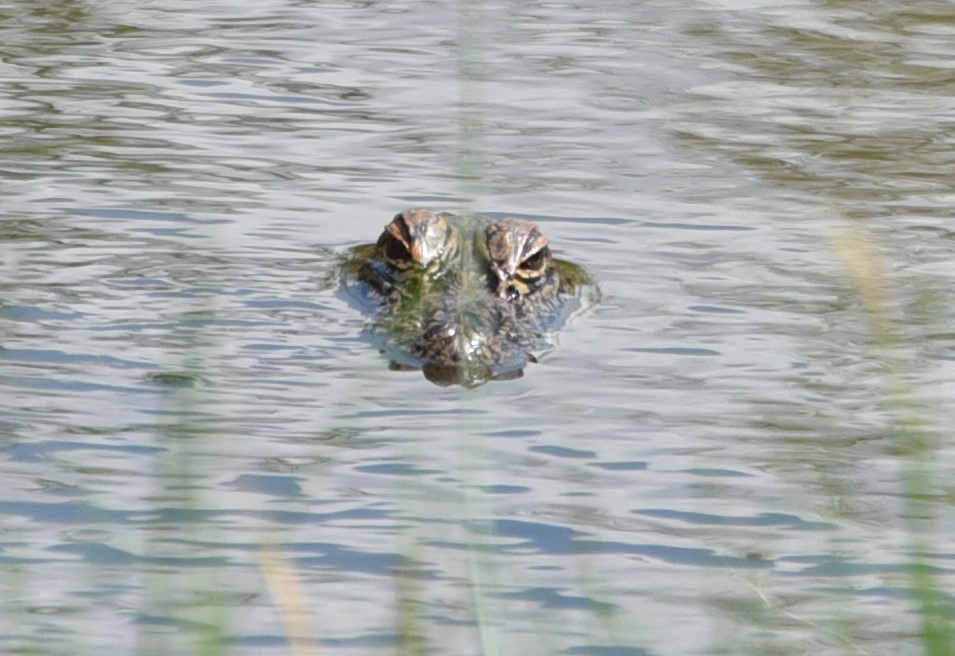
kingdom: Animalia
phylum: Chordata
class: Crocodylia
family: Alligatoridae
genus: Alligator
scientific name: Alligator mississippiensis
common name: American alligator
